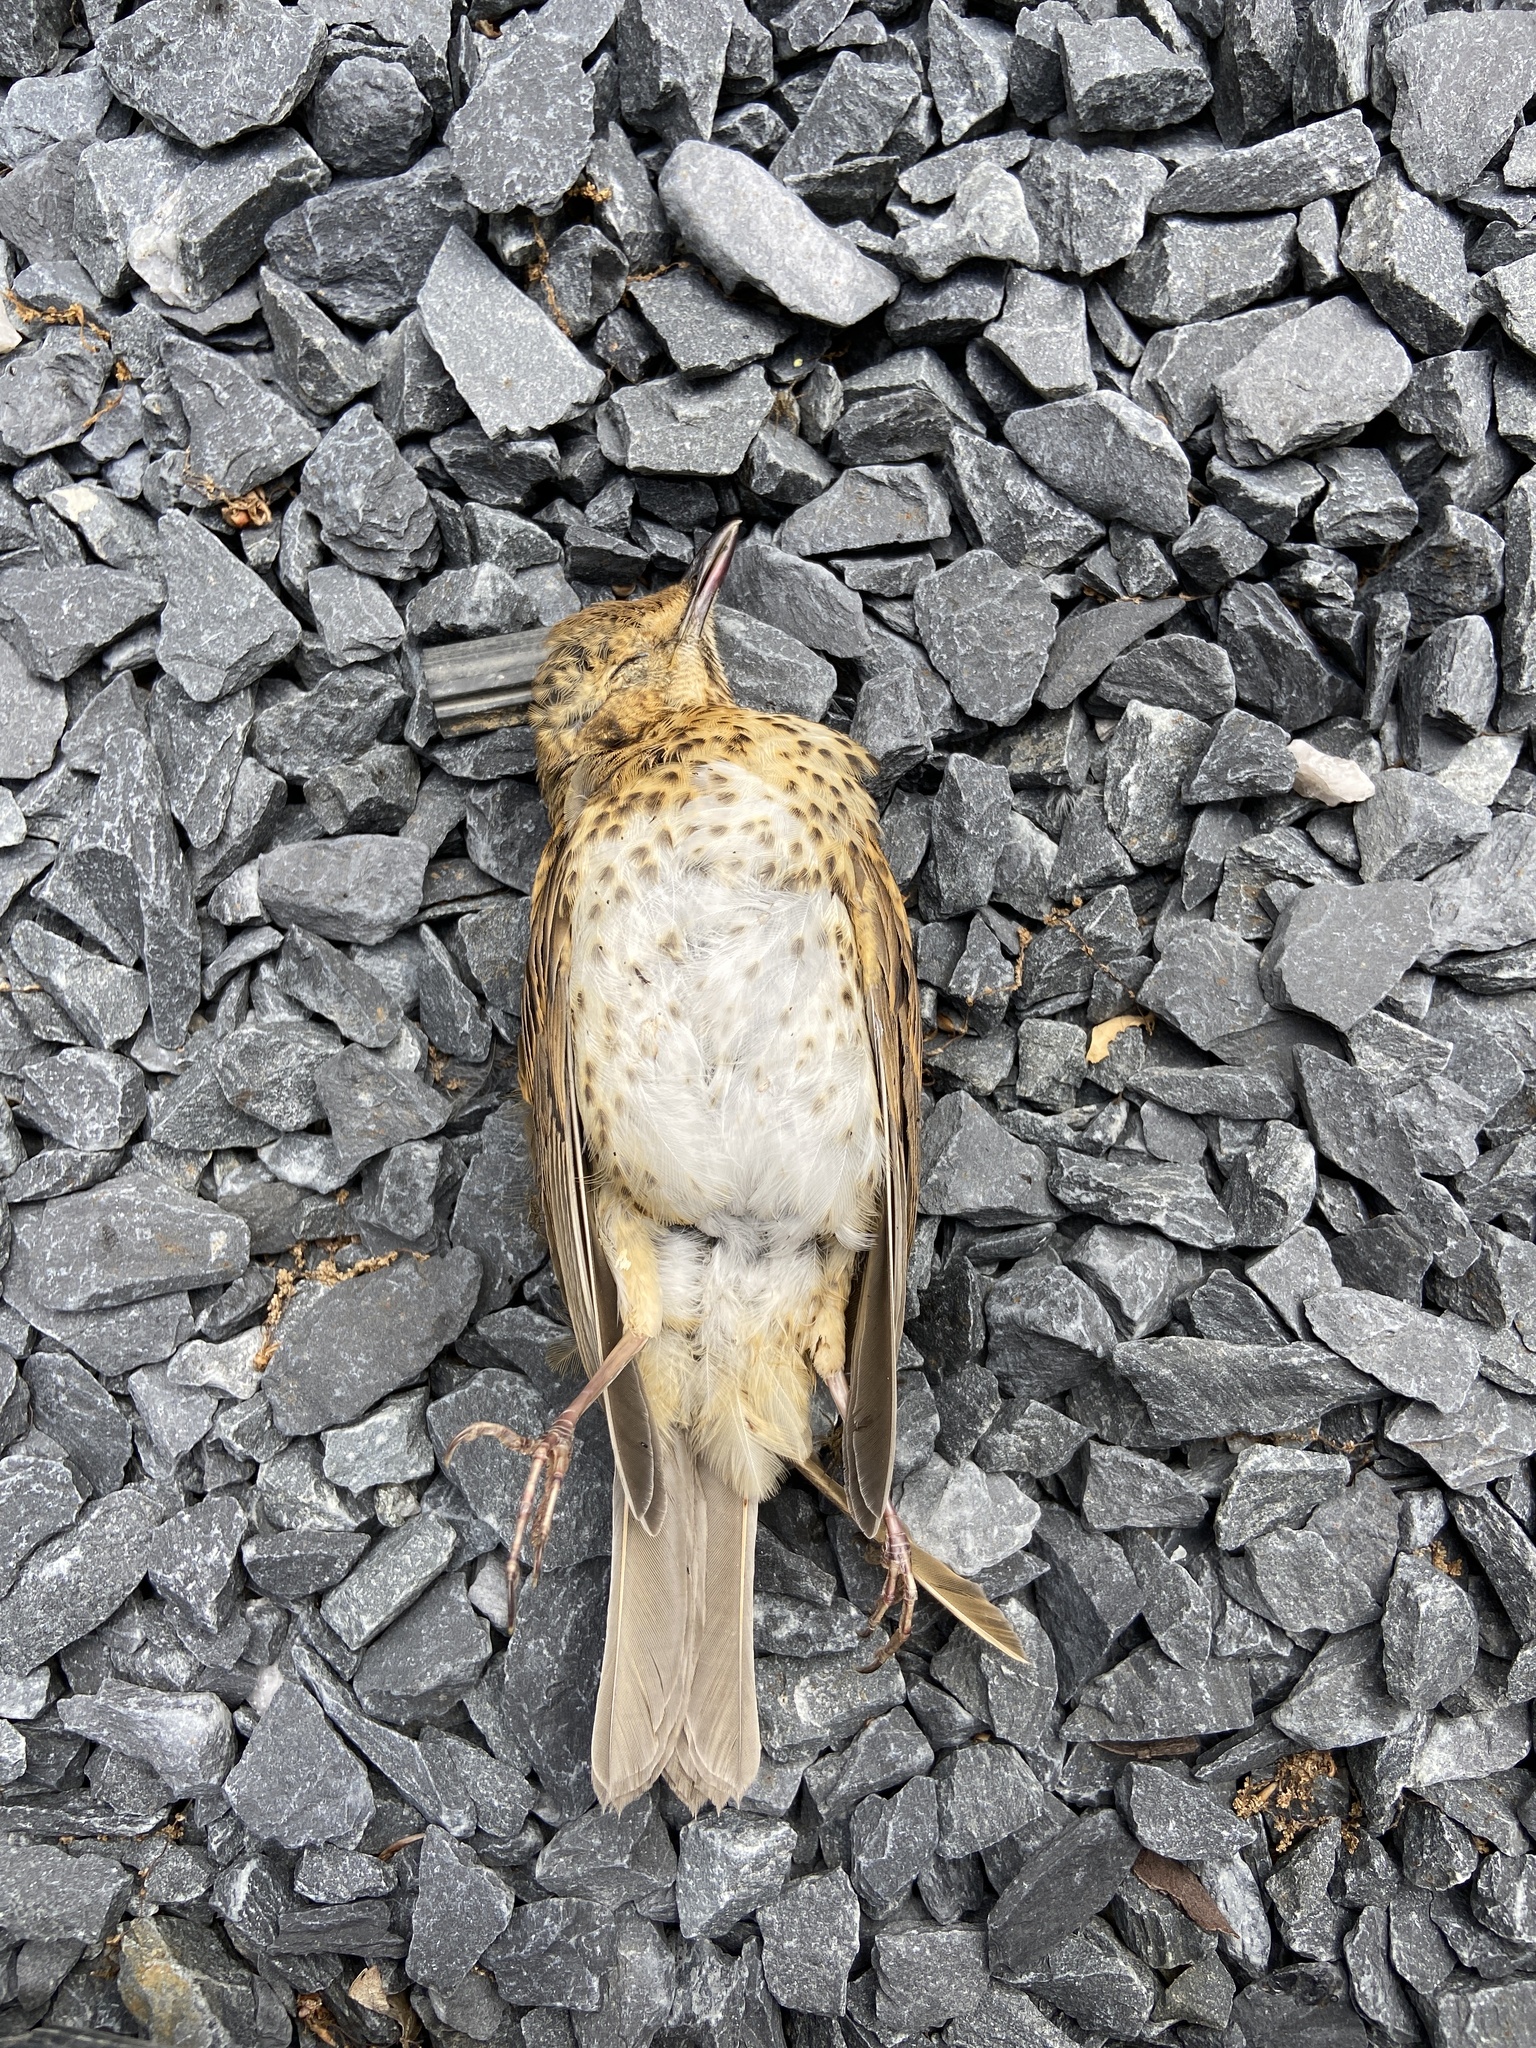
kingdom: Animalia
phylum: Chordata
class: Aves
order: Passeriformes
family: Turdidae
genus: Turdus
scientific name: Turdus philomelos
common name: Song thrush
